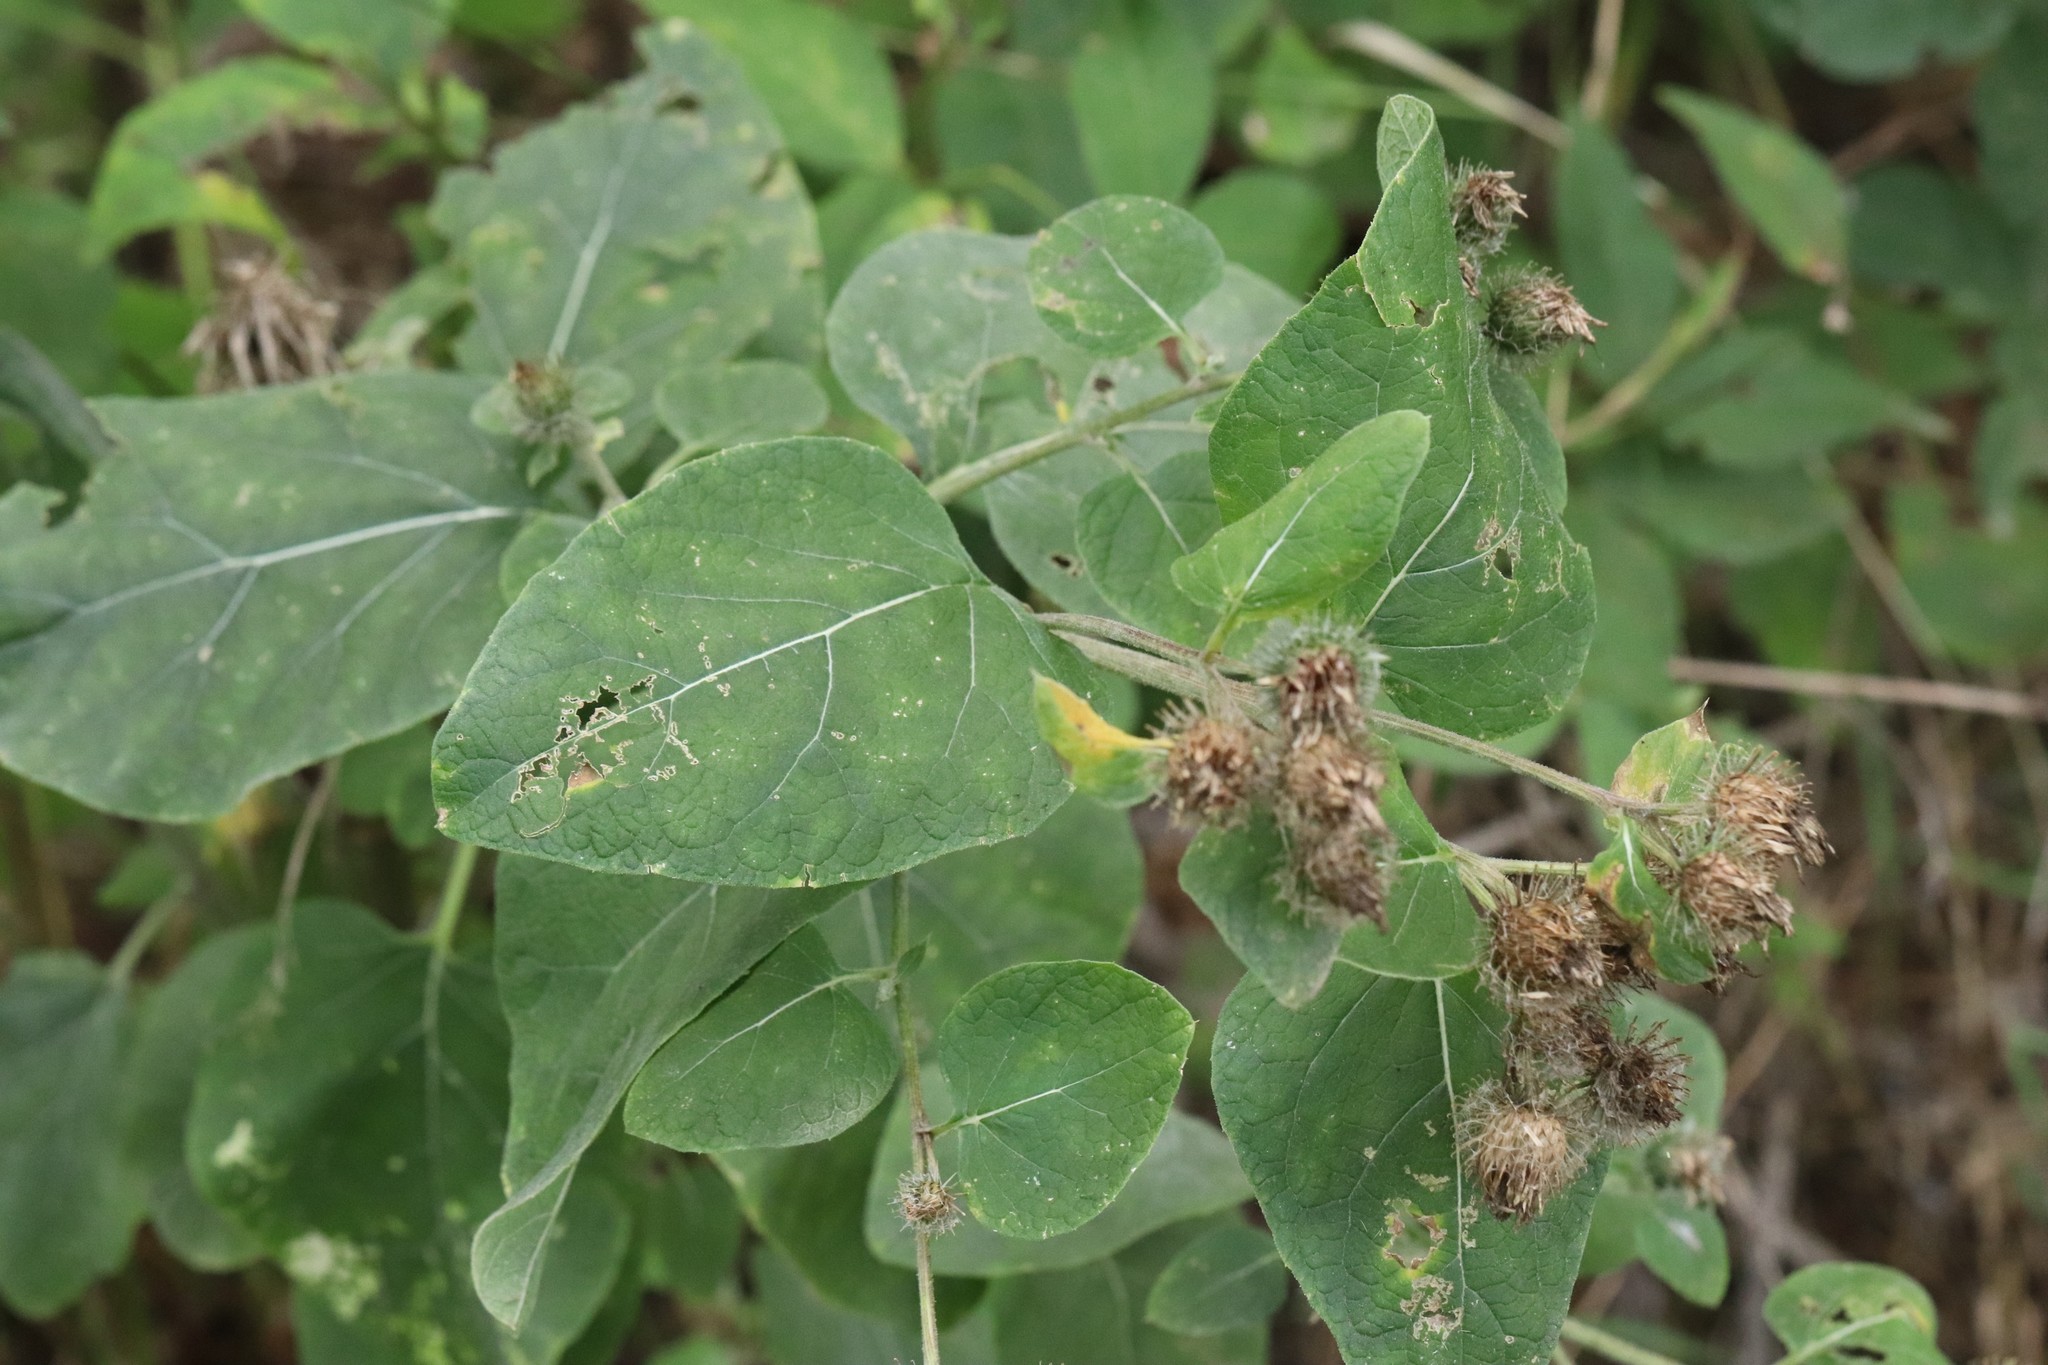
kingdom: Plantae
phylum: Tracheophyta
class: Magnoliopsida
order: Asterales
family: Asteraceae
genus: Arctium
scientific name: Arctium tomentosum
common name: Woolly burdock
